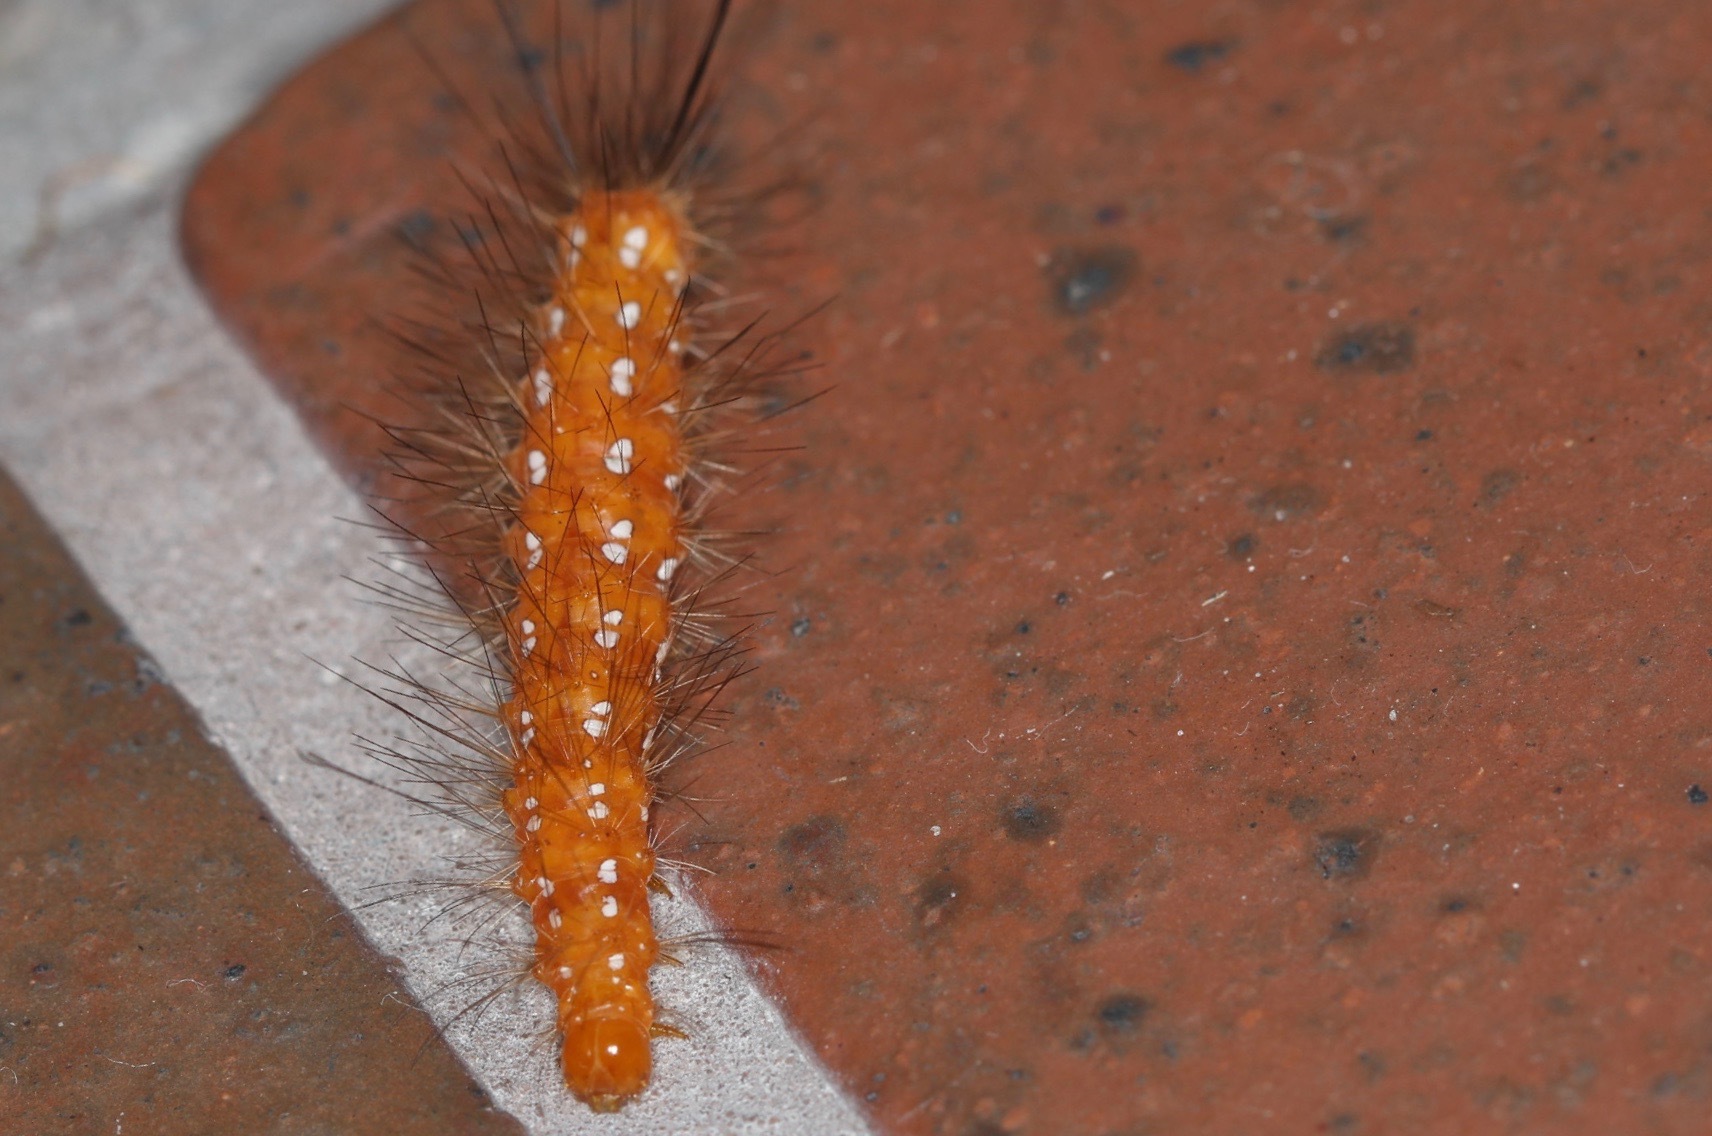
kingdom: Animalia
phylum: Arthropoda
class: Insecta
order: Lepidoptera
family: Erebidae
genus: Empyreuma
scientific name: Empyreuma pugione
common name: Spotted oleander caterpillar moth
